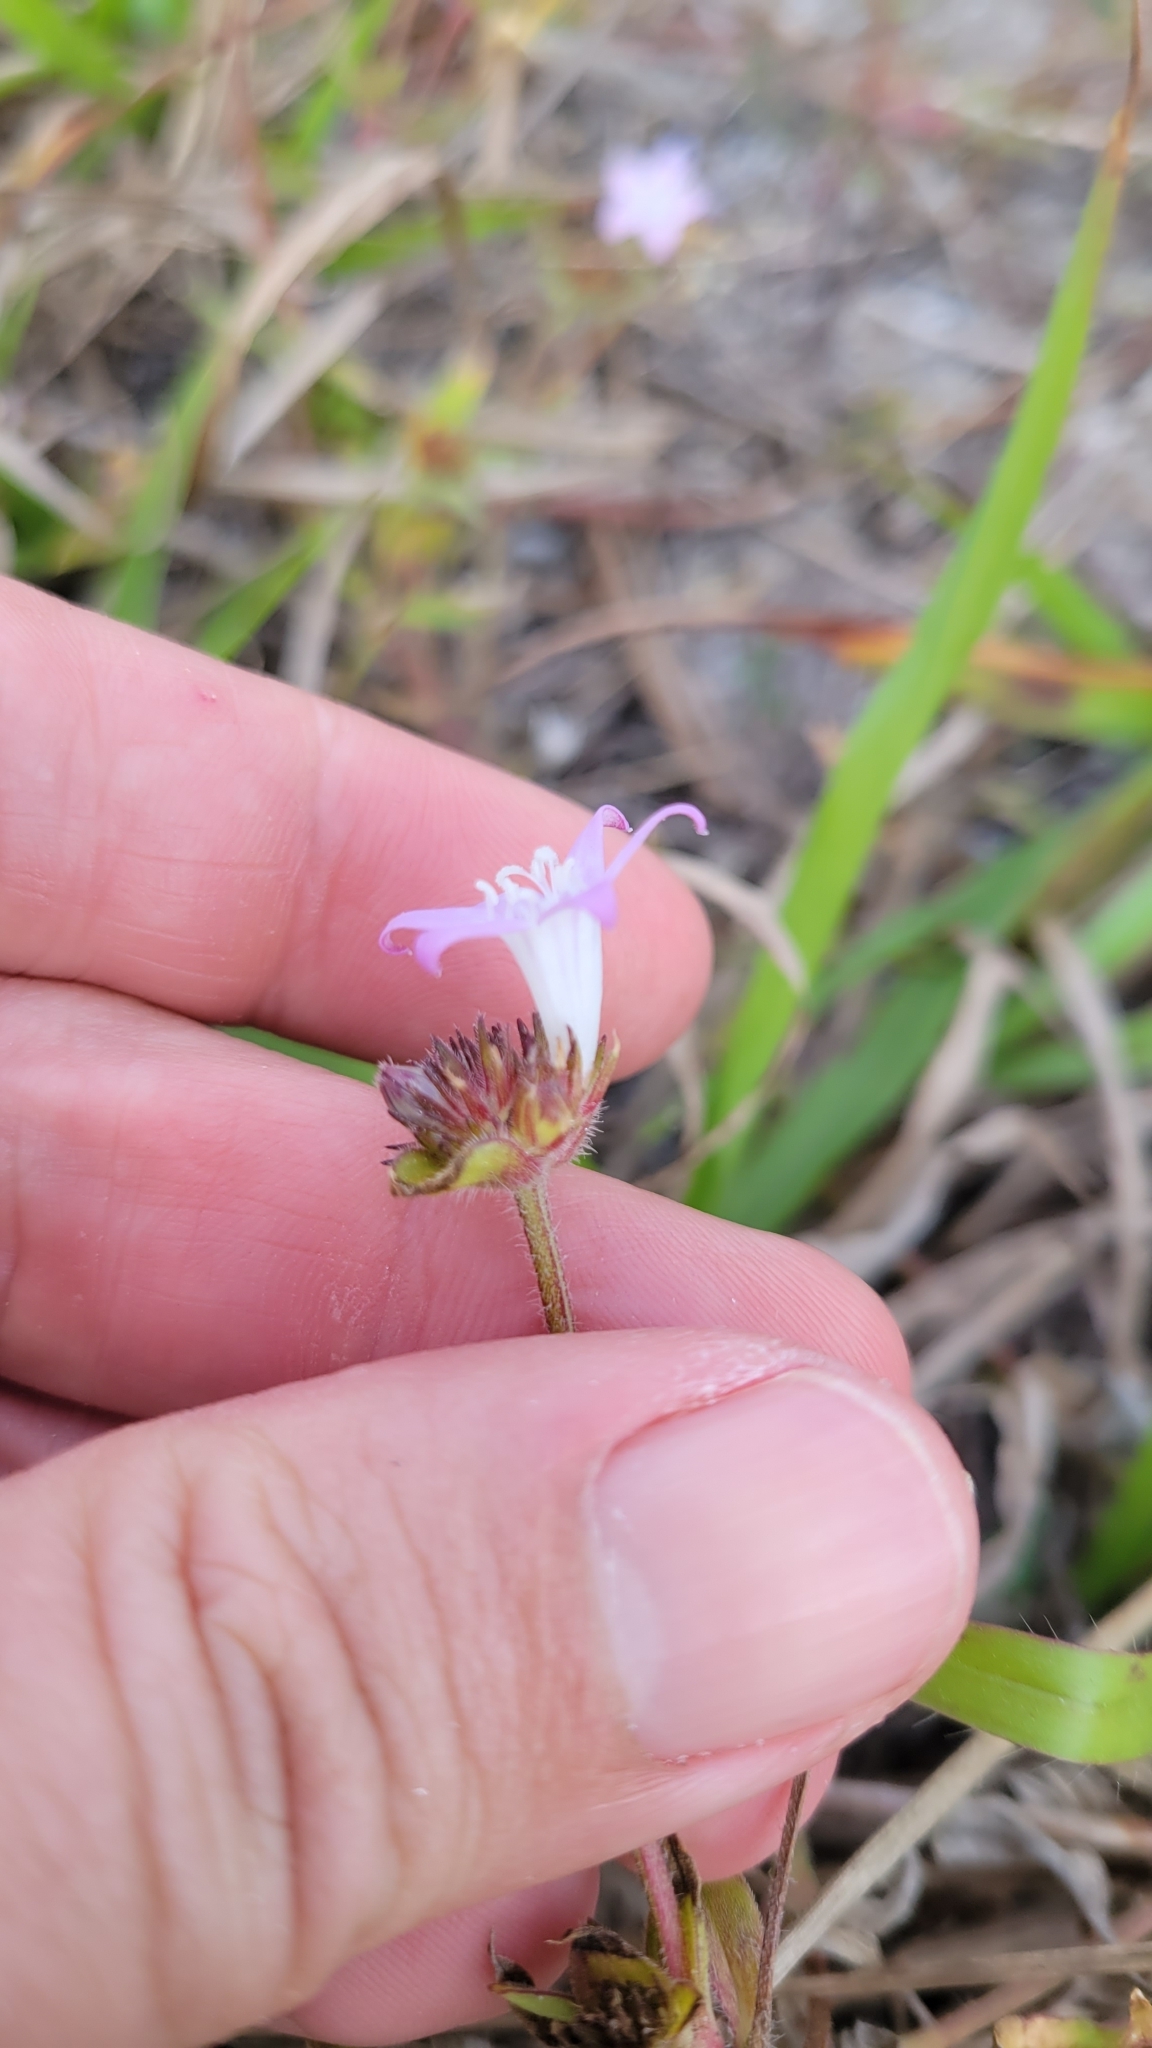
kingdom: Plantae
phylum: Tracheophyta
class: Magnoliopsida
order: Gentianales
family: Rubiaceae
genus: Richardia
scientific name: Richardia grandiflora
